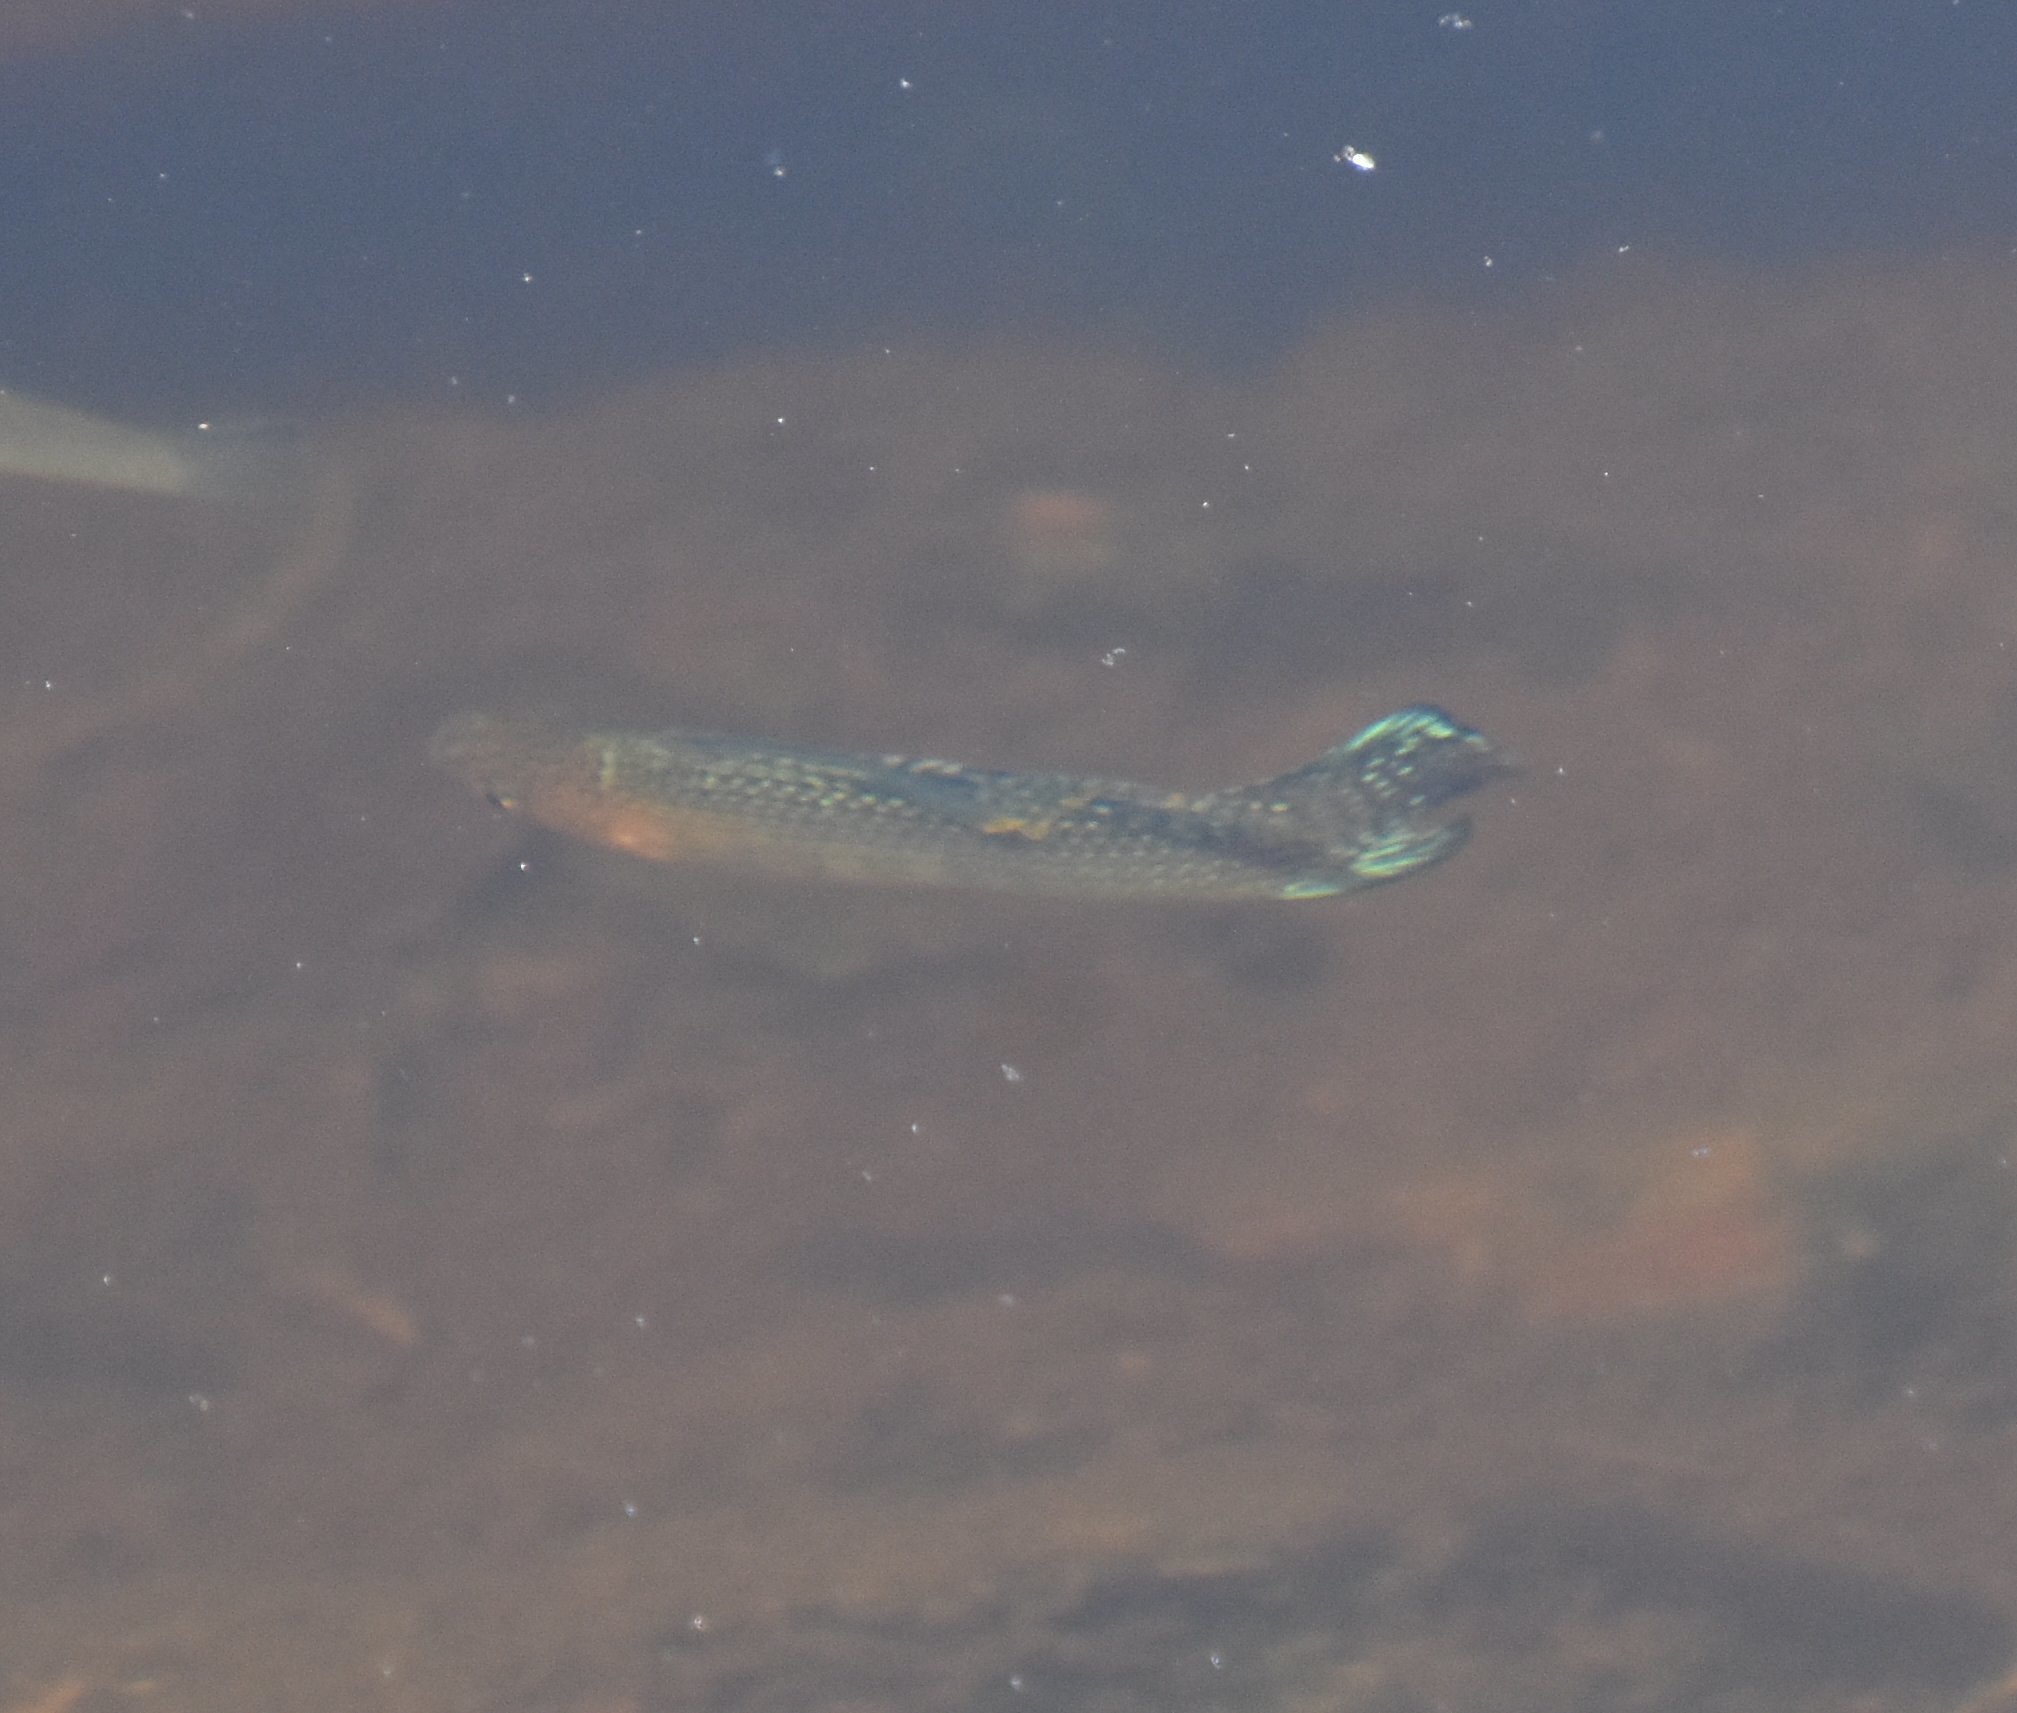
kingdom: Animalia
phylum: Chordata
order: Cyprinodontiformes
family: Poeciliidae
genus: Poecilia
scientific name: Poecilia latipinna
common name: Sailfin molly
